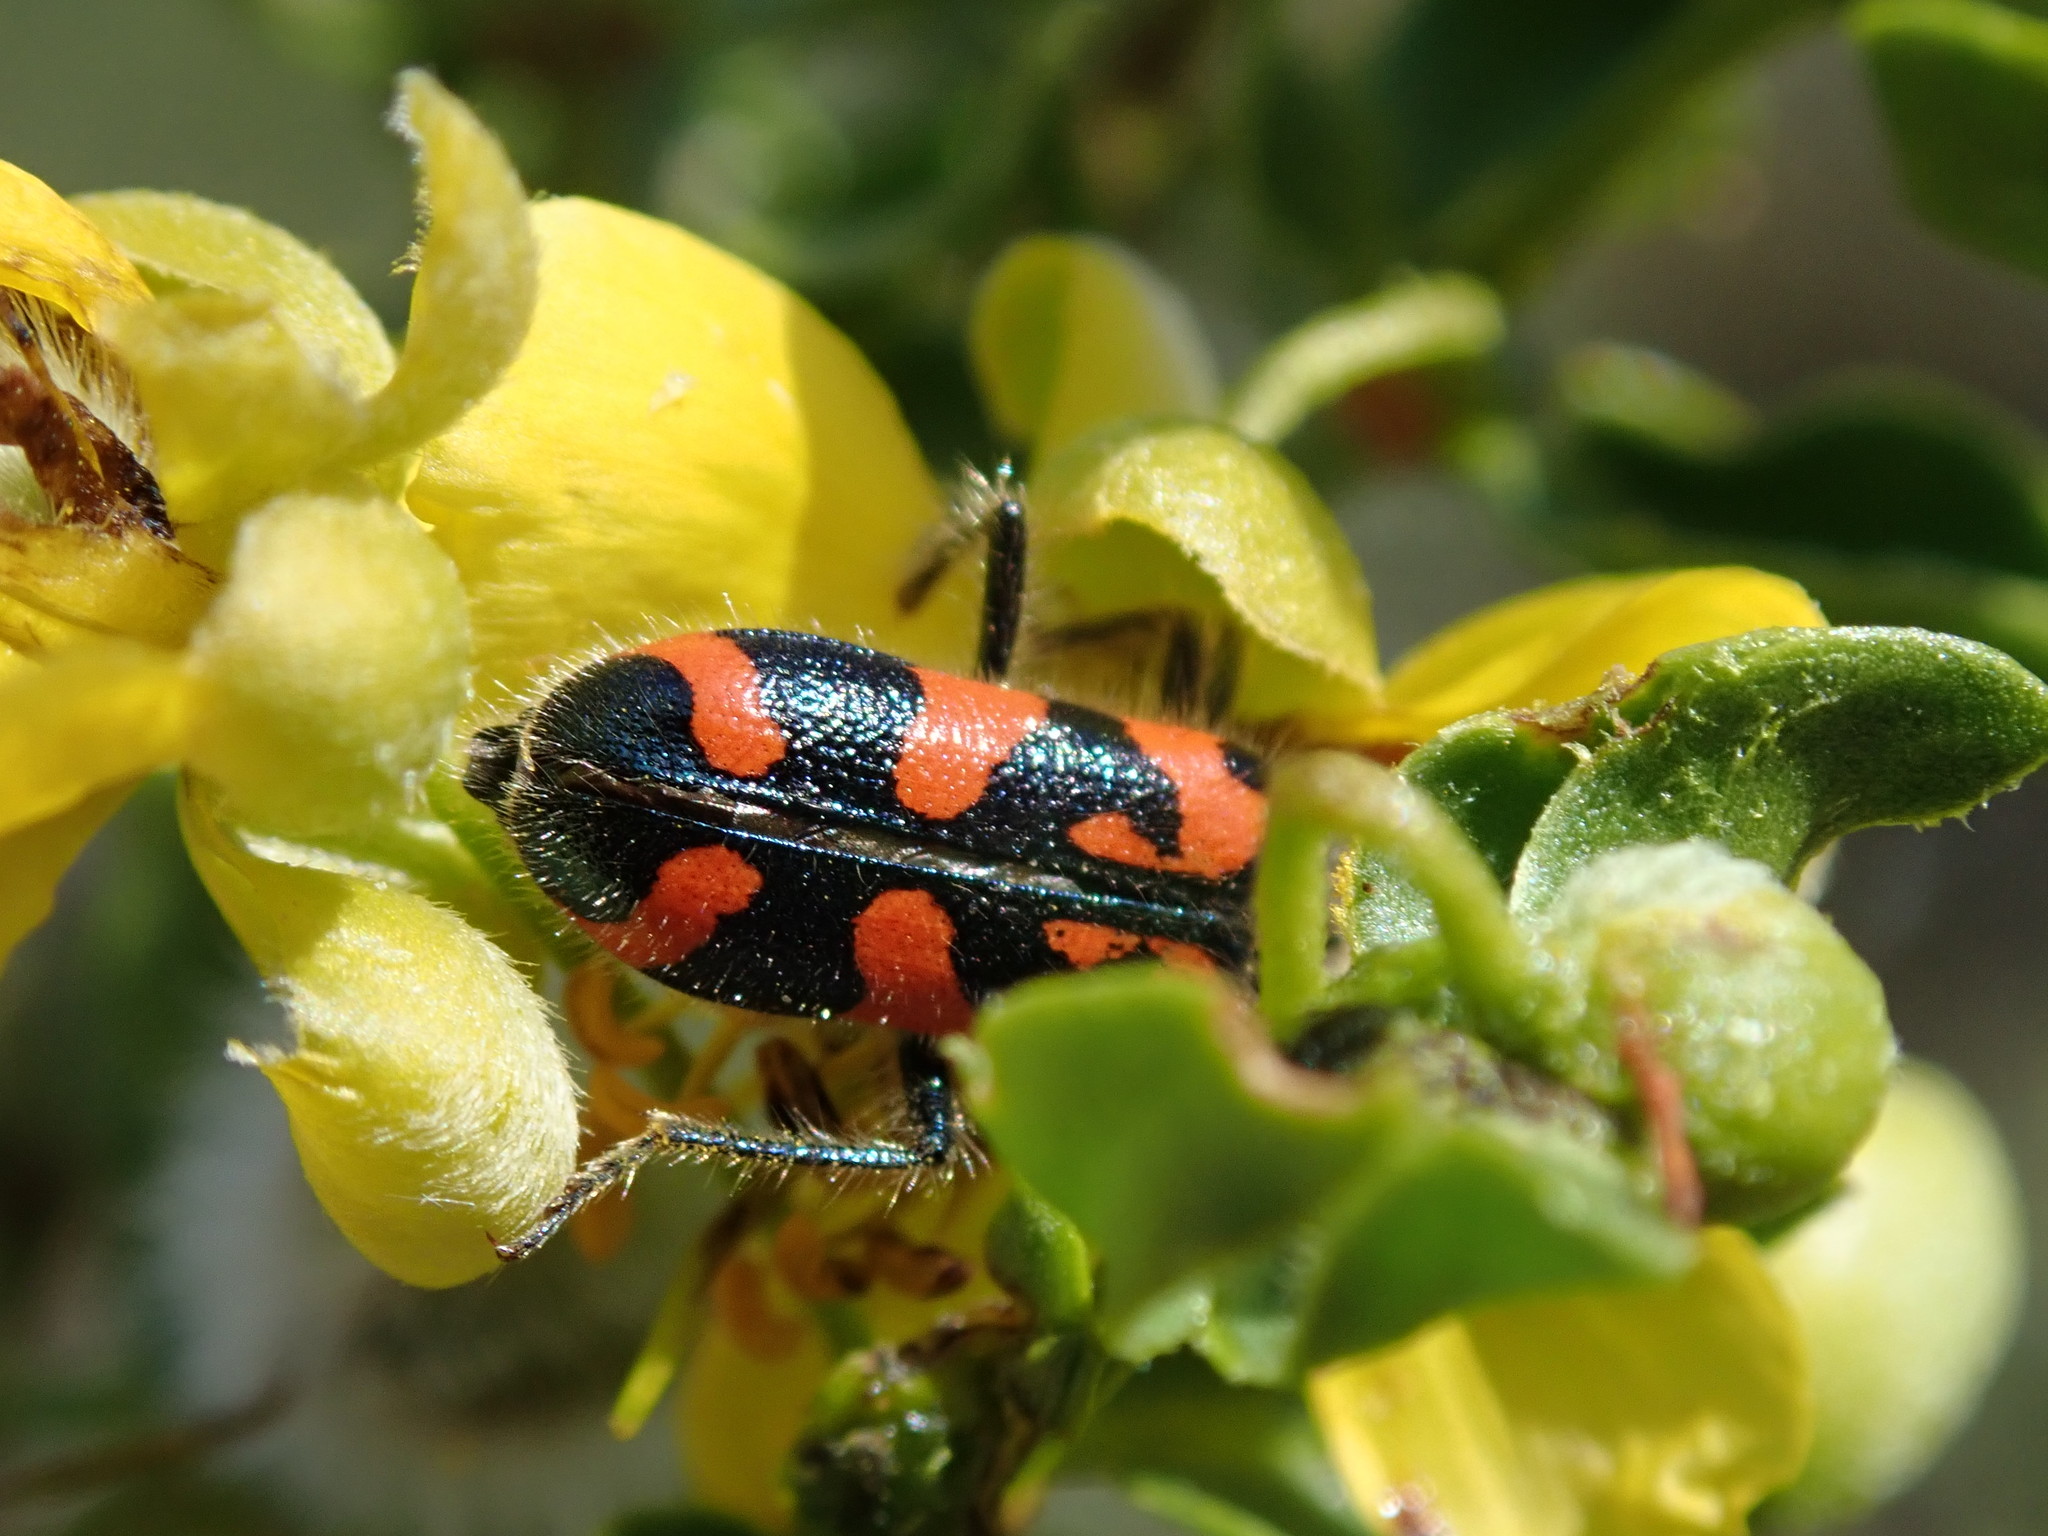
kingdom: Animalia
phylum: Arthropoda
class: Insecta
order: Coleoptera
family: Cleridae
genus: Trichodes
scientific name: Trichodes ornatus
